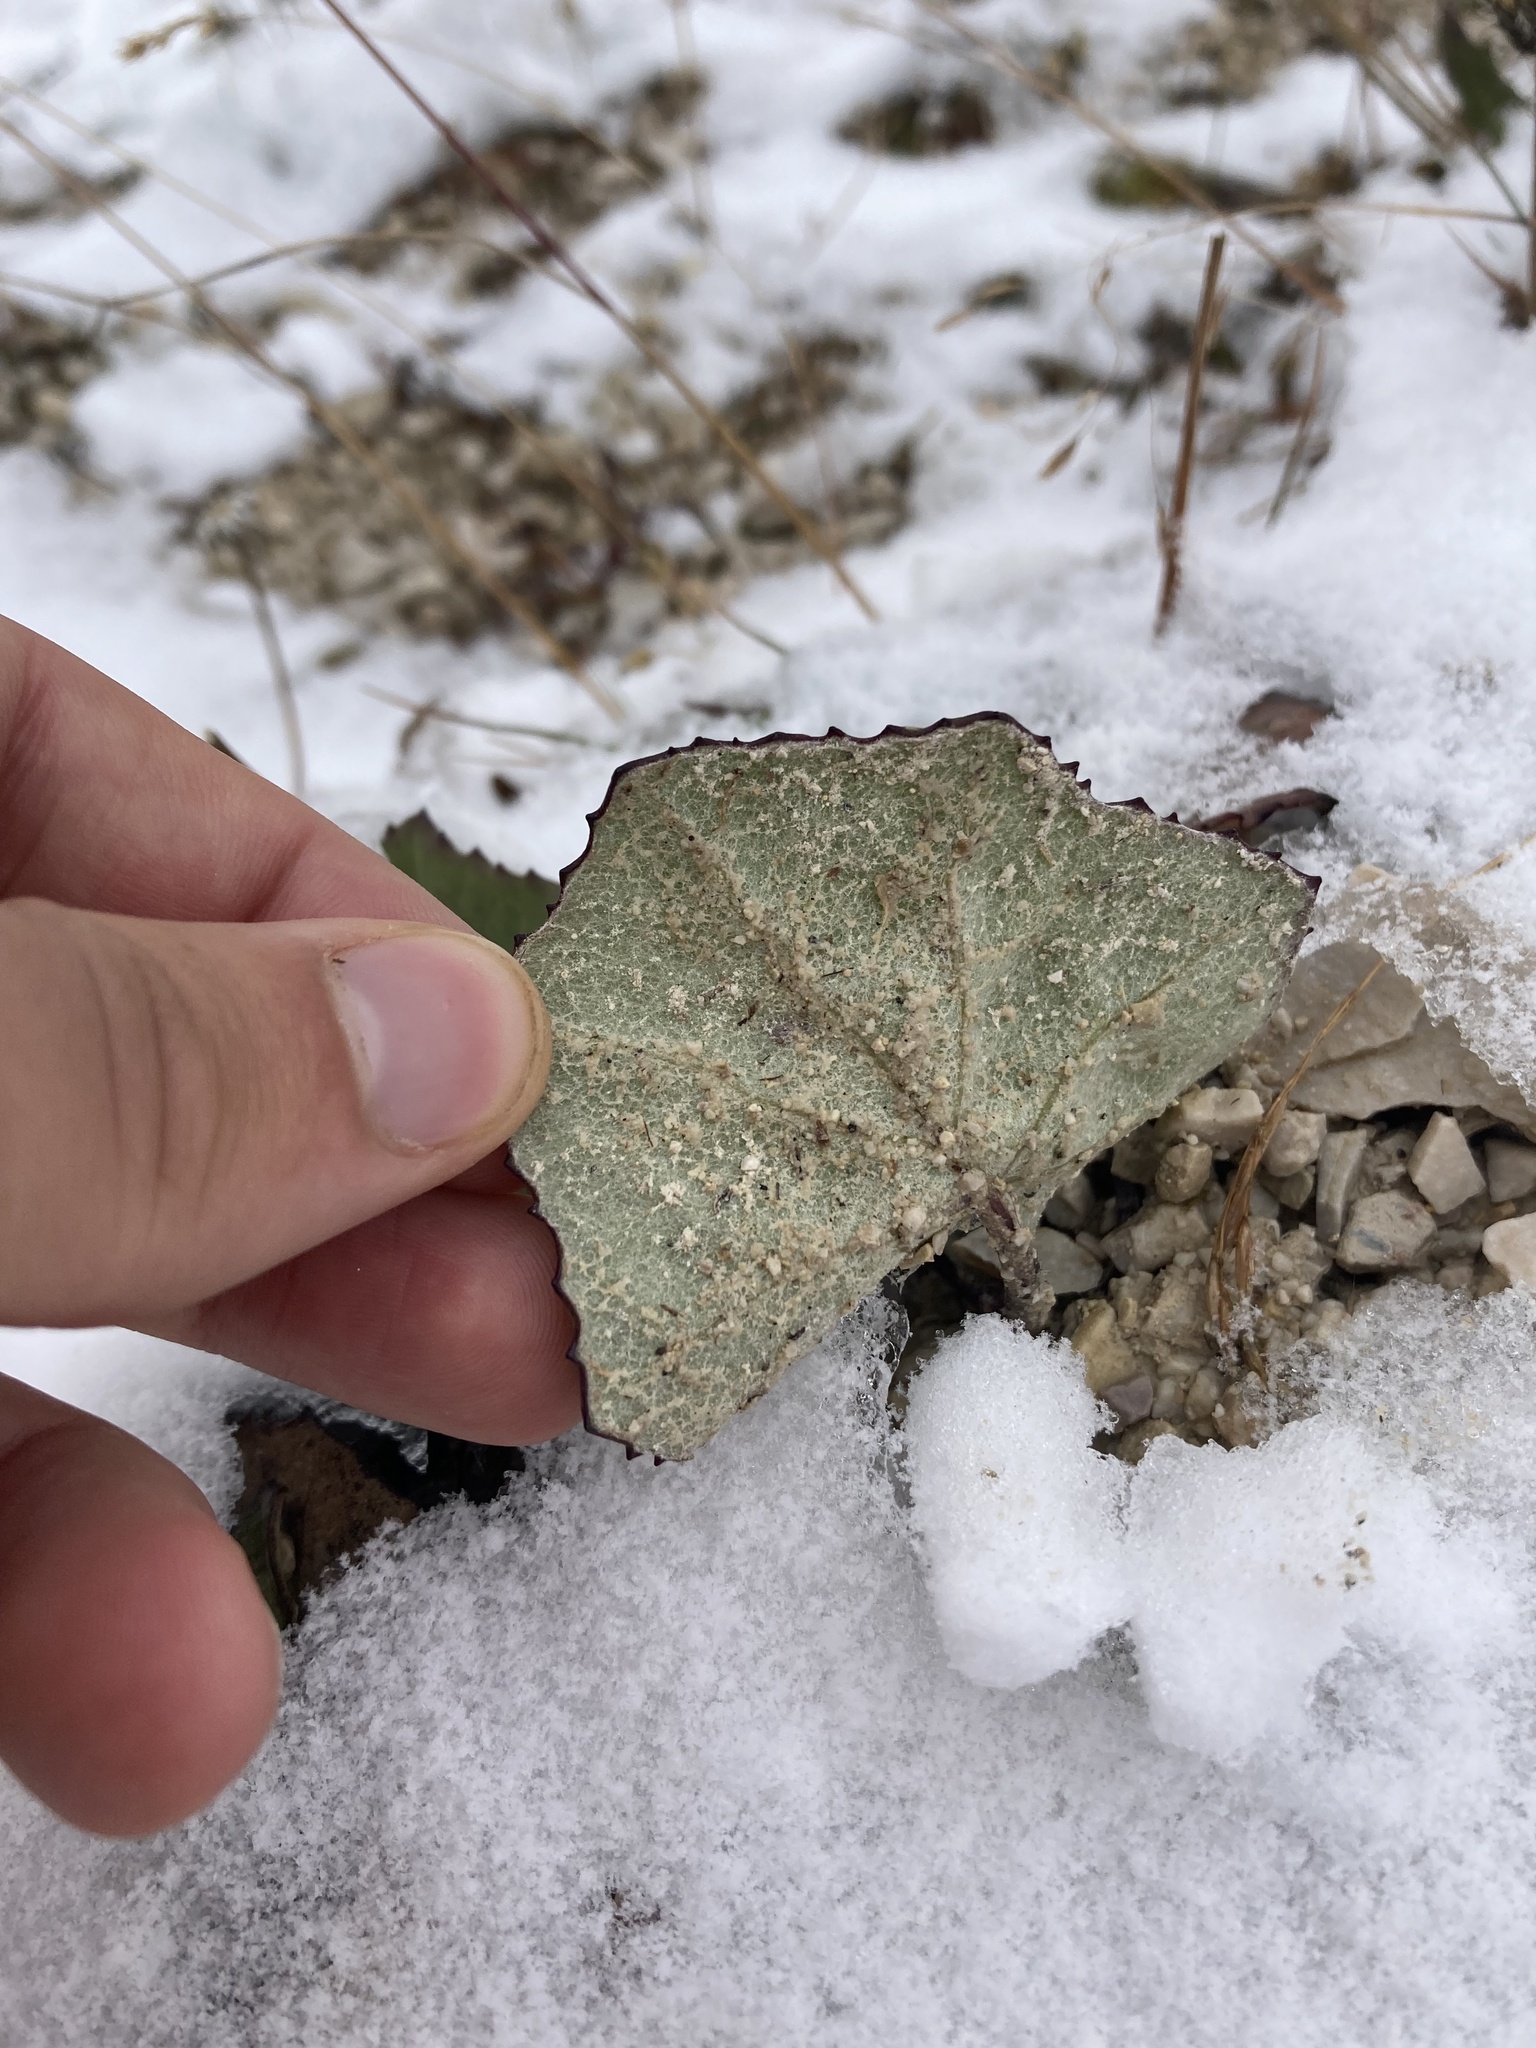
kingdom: Plantae
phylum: Tracheophyta
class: Magnoliopsida
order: Asterales
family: Asteraceae
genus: Tussilago
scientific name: Tussilago farfara
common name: Coltsfoot
